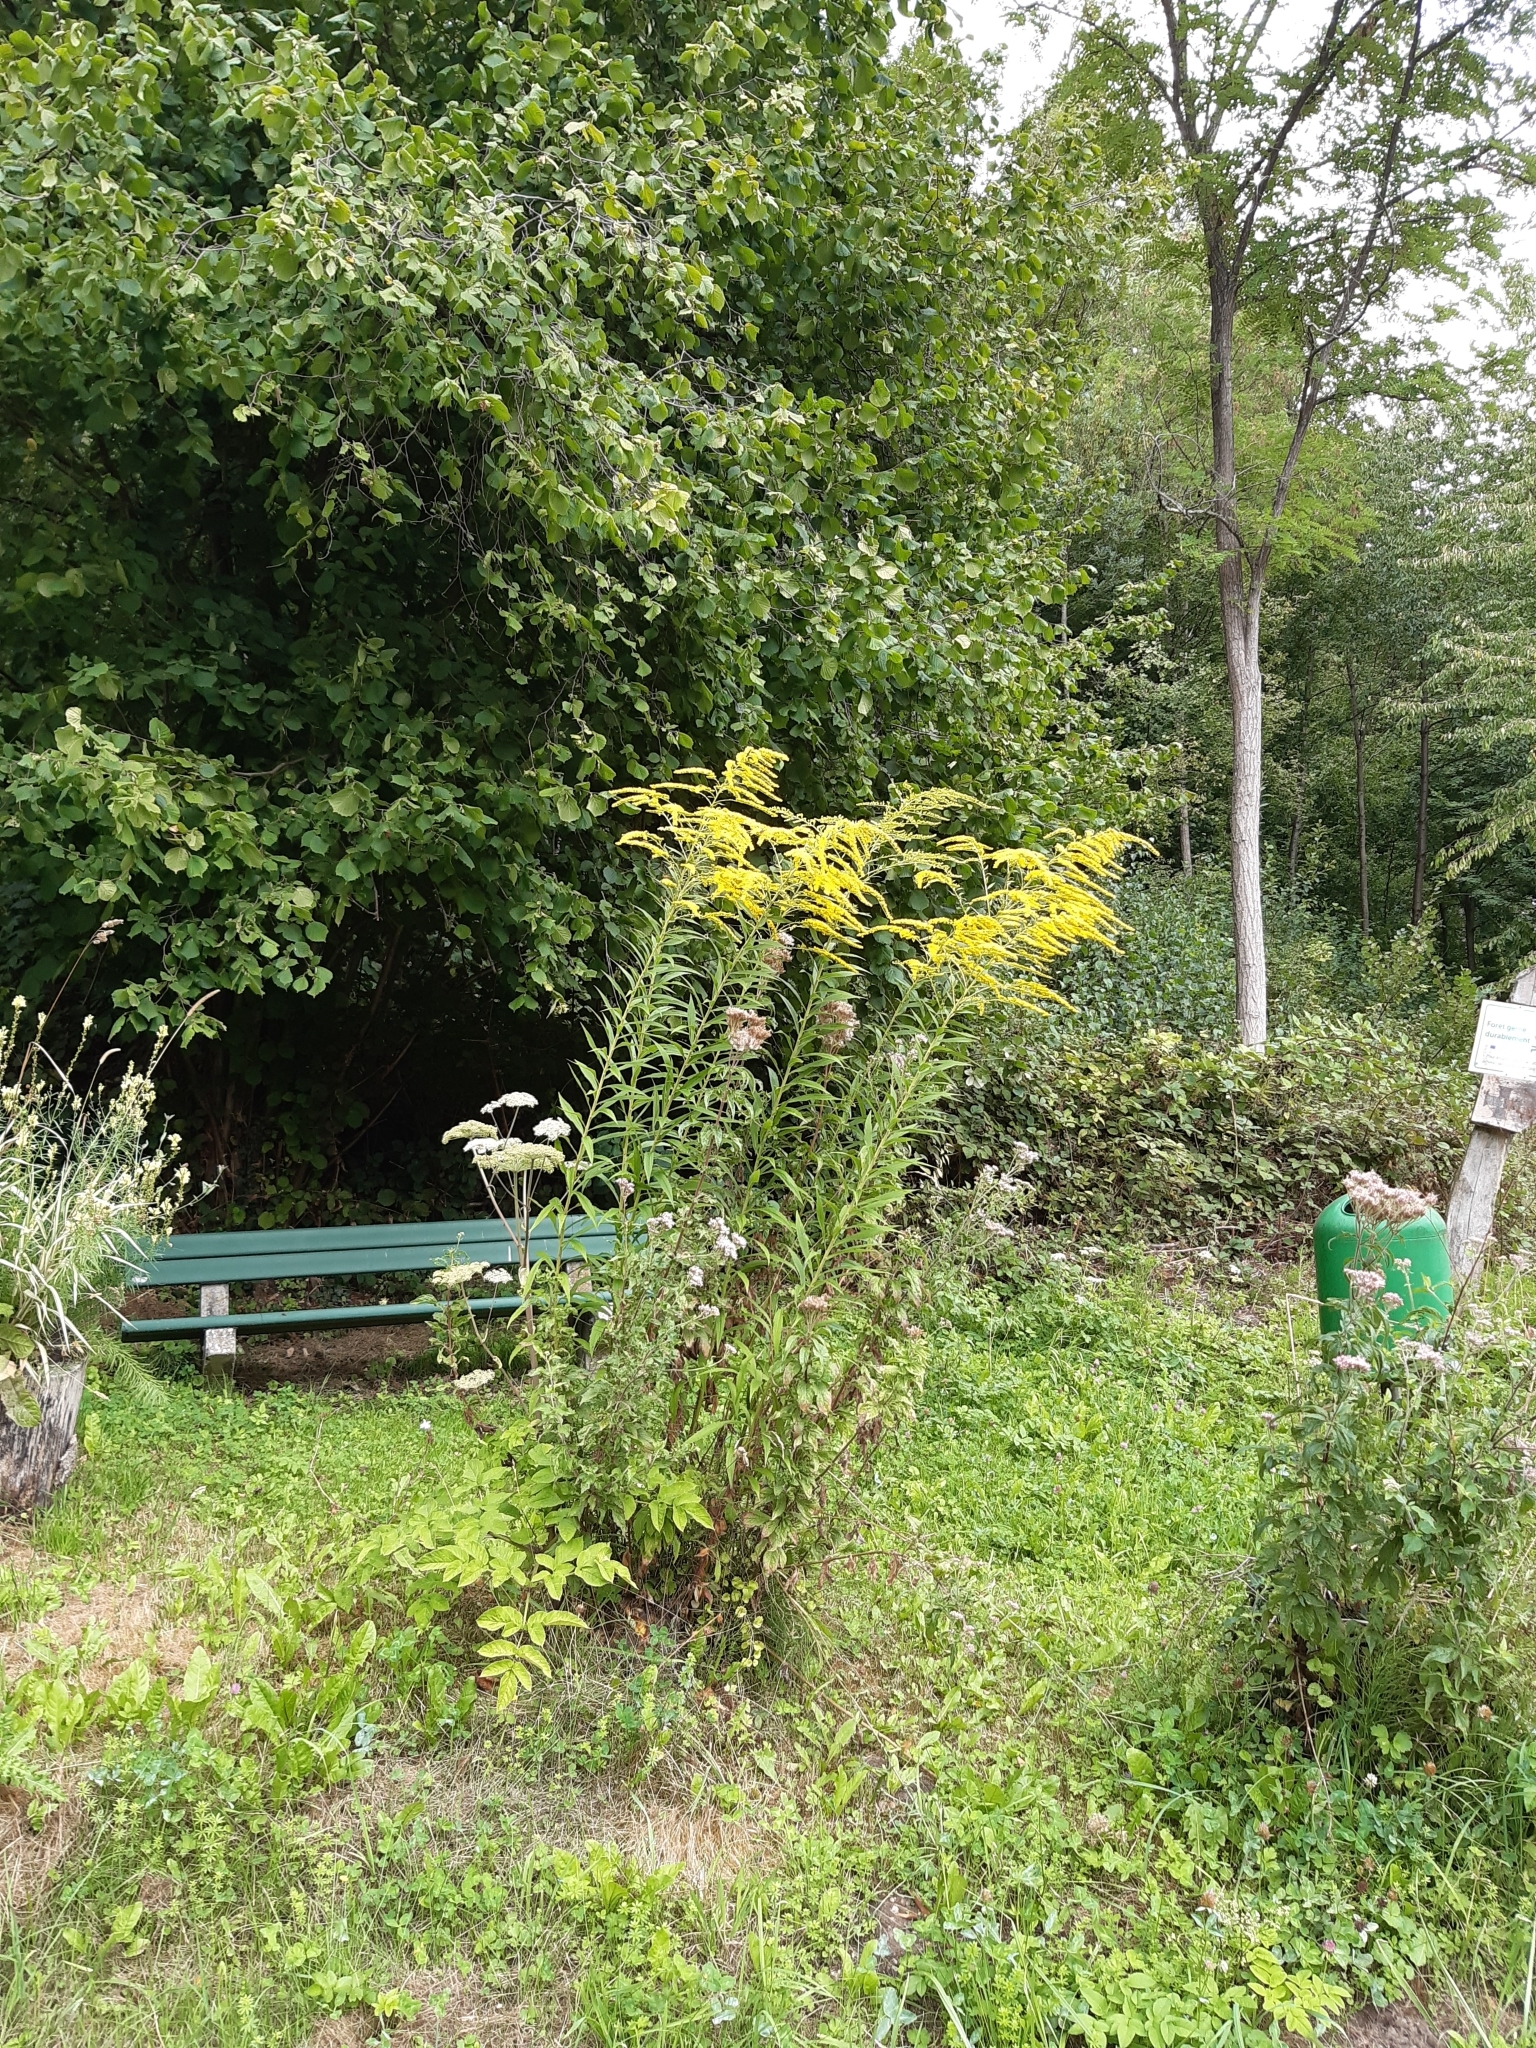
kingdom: Plantae
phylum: Tracheophyta
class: Magnoliopsida
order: Asterales
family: Asteraceae
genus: Solidago
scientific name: Solidago canadensis
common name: Canada goldenrod
